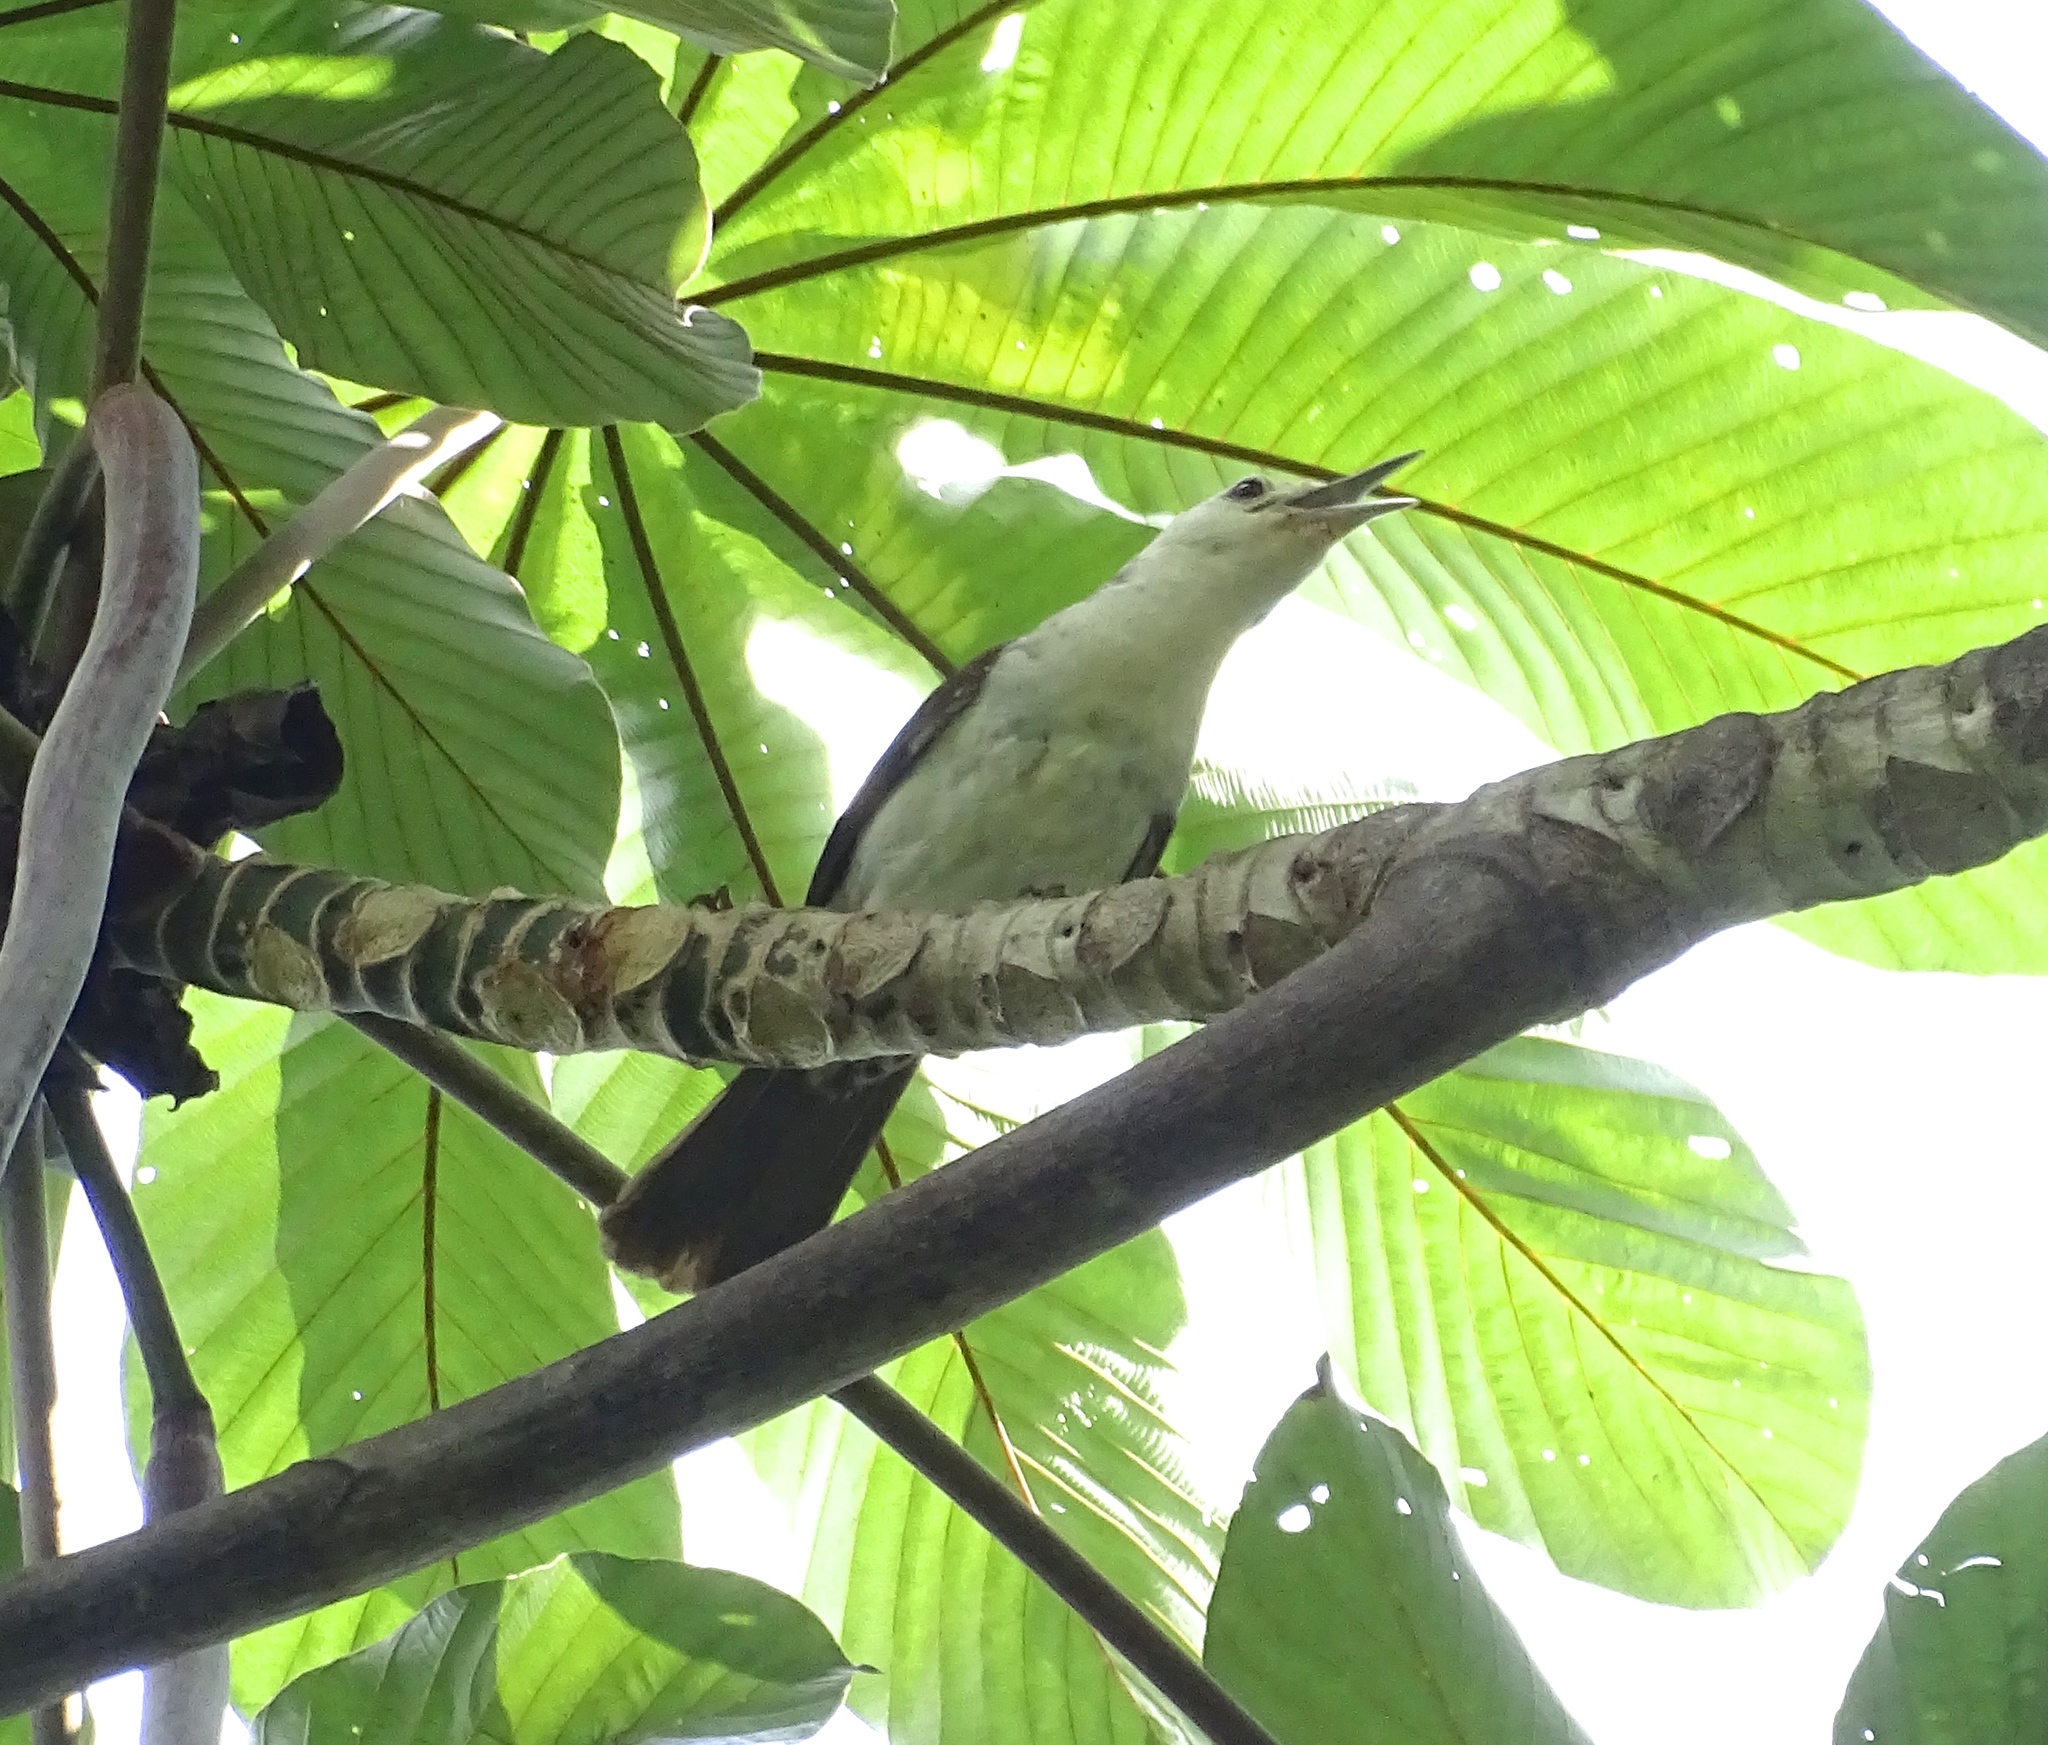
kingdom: Animalia
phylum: Chordata
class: Aves
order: Passeriformes
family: Troglodytidae
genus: Campylorhynchus
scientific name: Campylorhynchus albobrunneus
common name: White-headed wren
